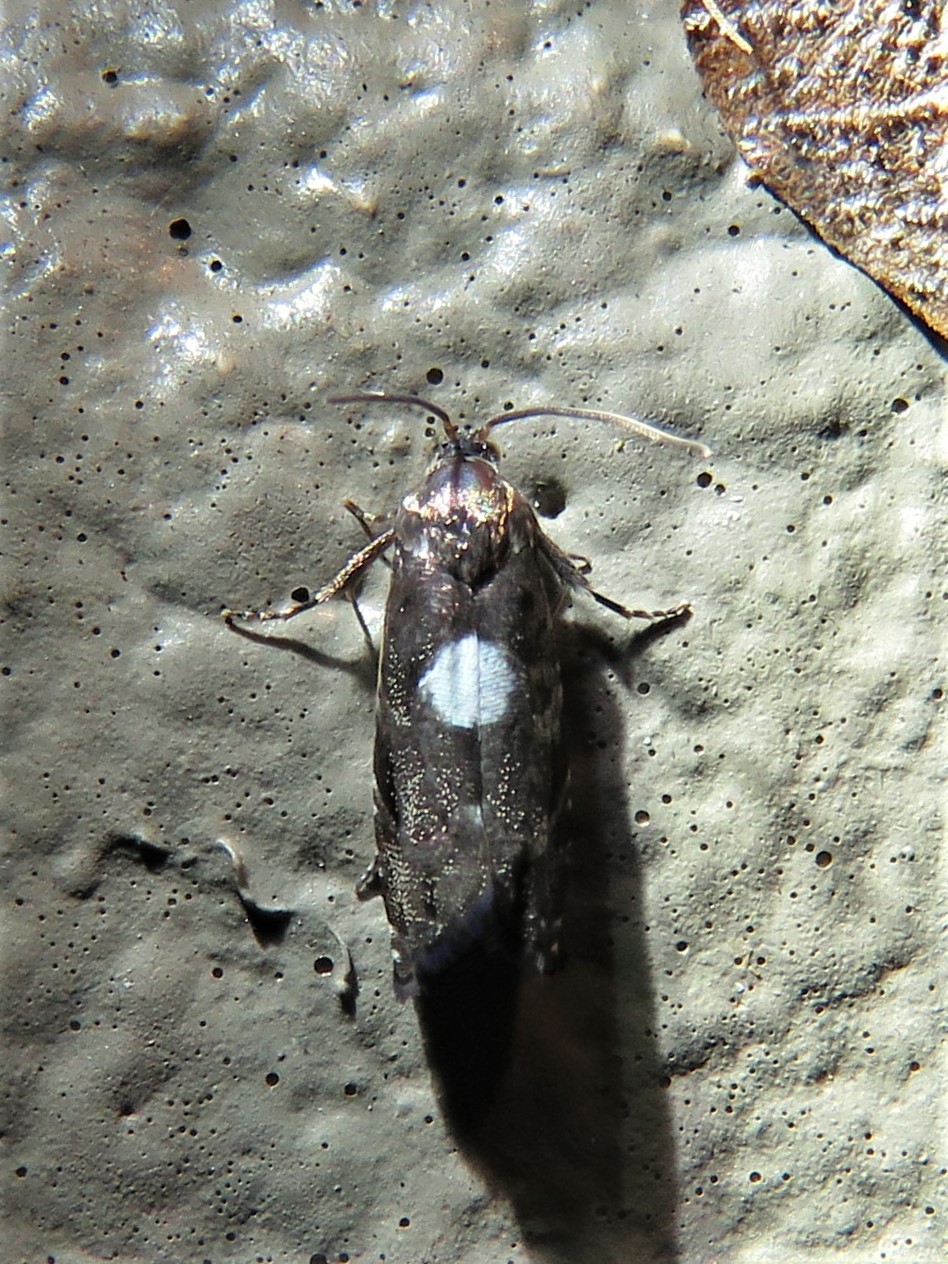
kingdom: Animalia
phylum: Arthropoda
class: Insecta
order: Lepidoptera
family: Tortricidae
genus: Cydia
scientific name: Cydia albimaculana
